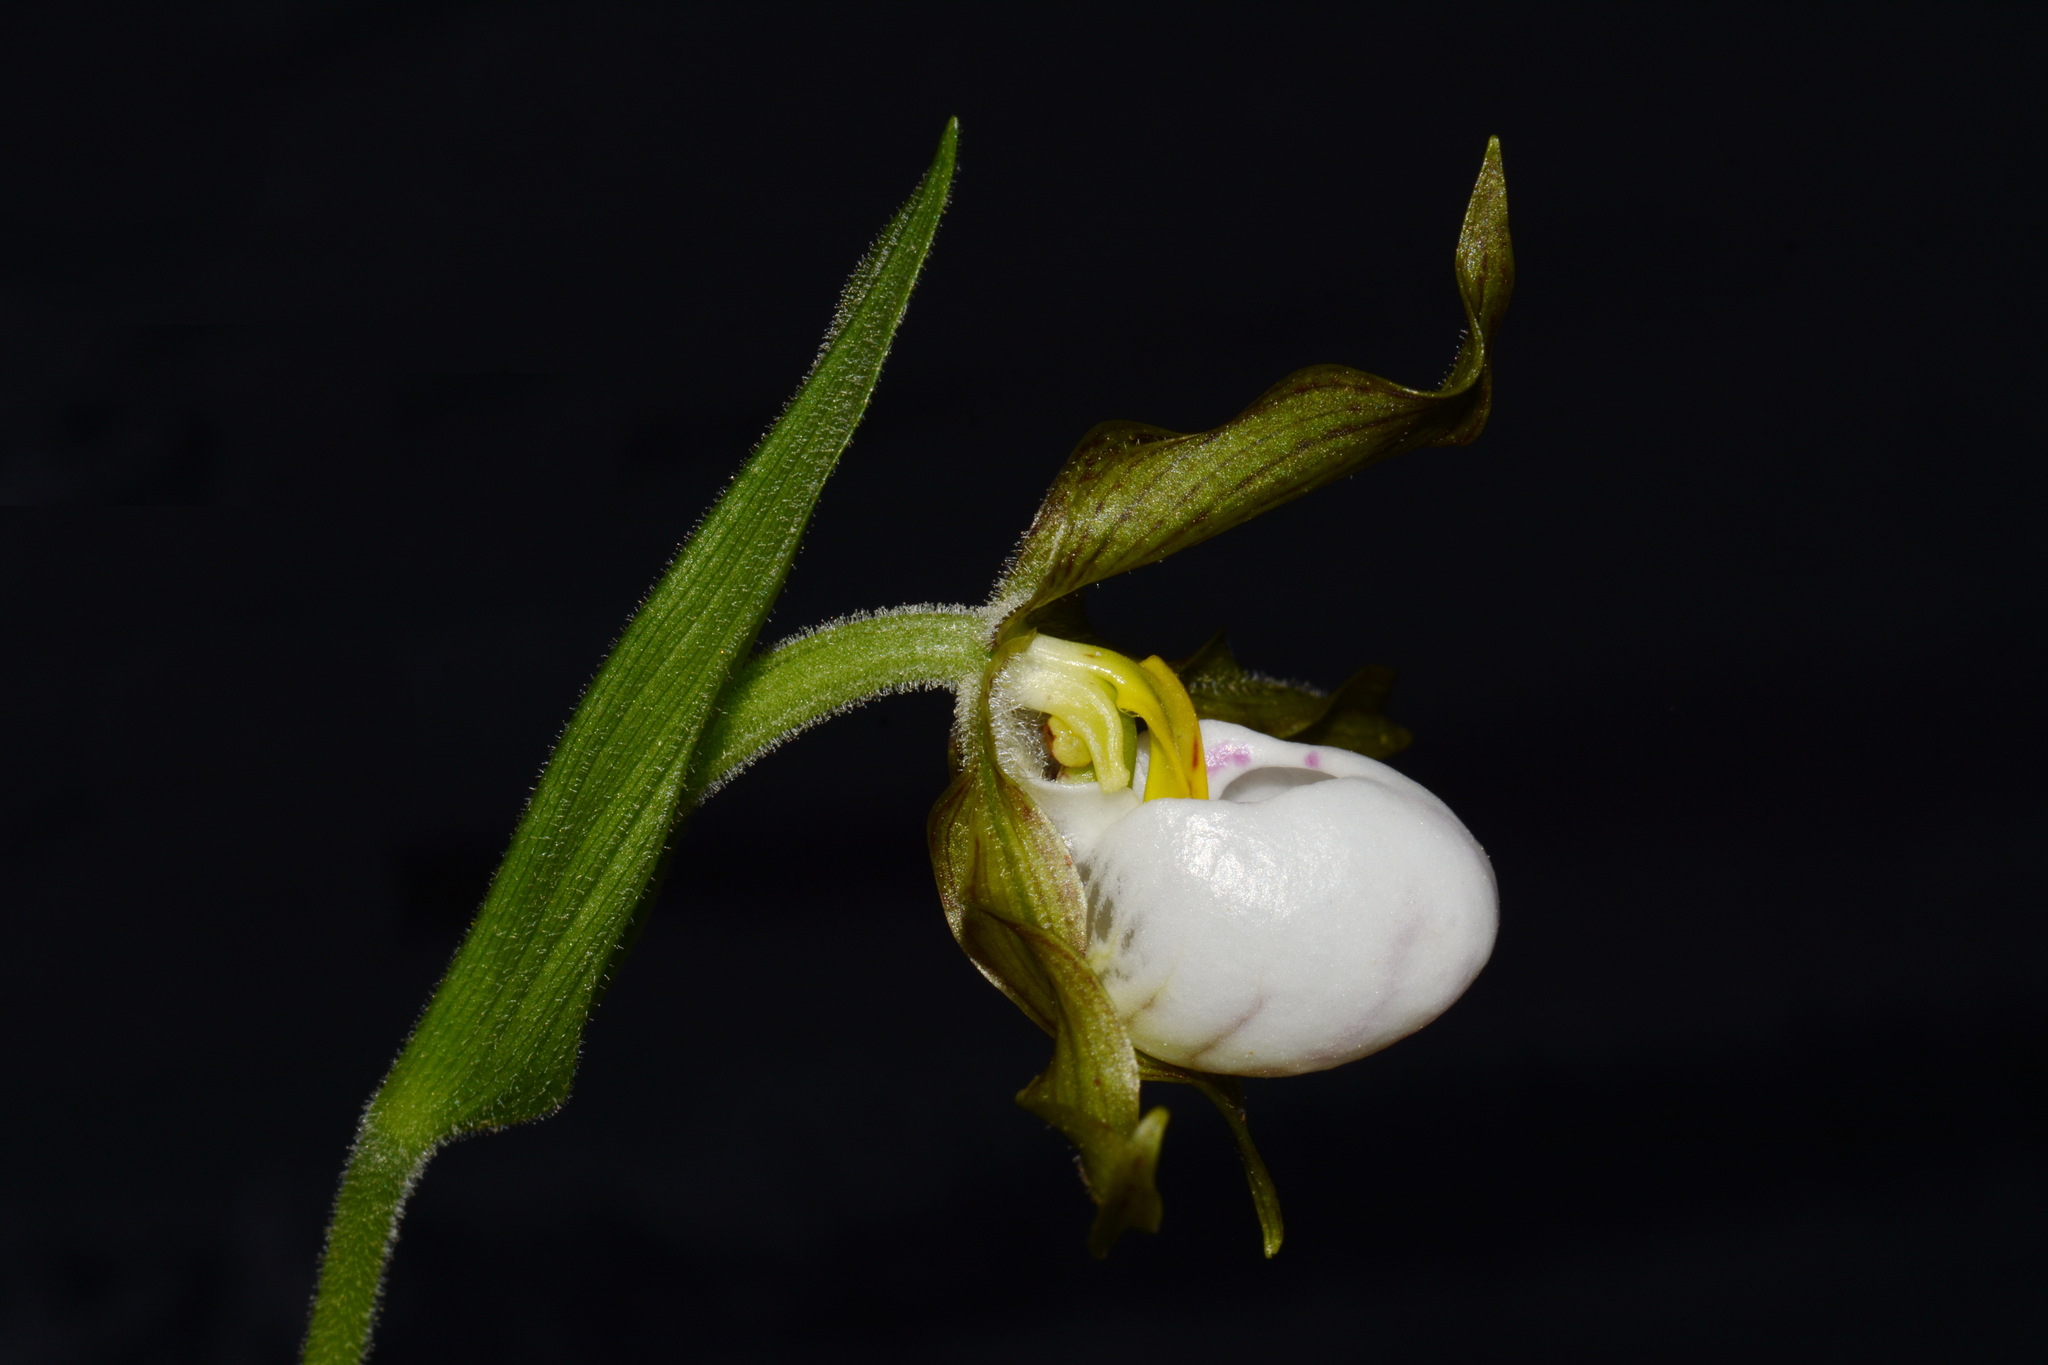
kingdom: Plantae
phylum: Tracheophyta
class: Liliopsida
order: Asparagales
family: Orchidaceae
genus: Cypripedium
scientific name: Cypripedium candidum
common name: White lady's-slipper
